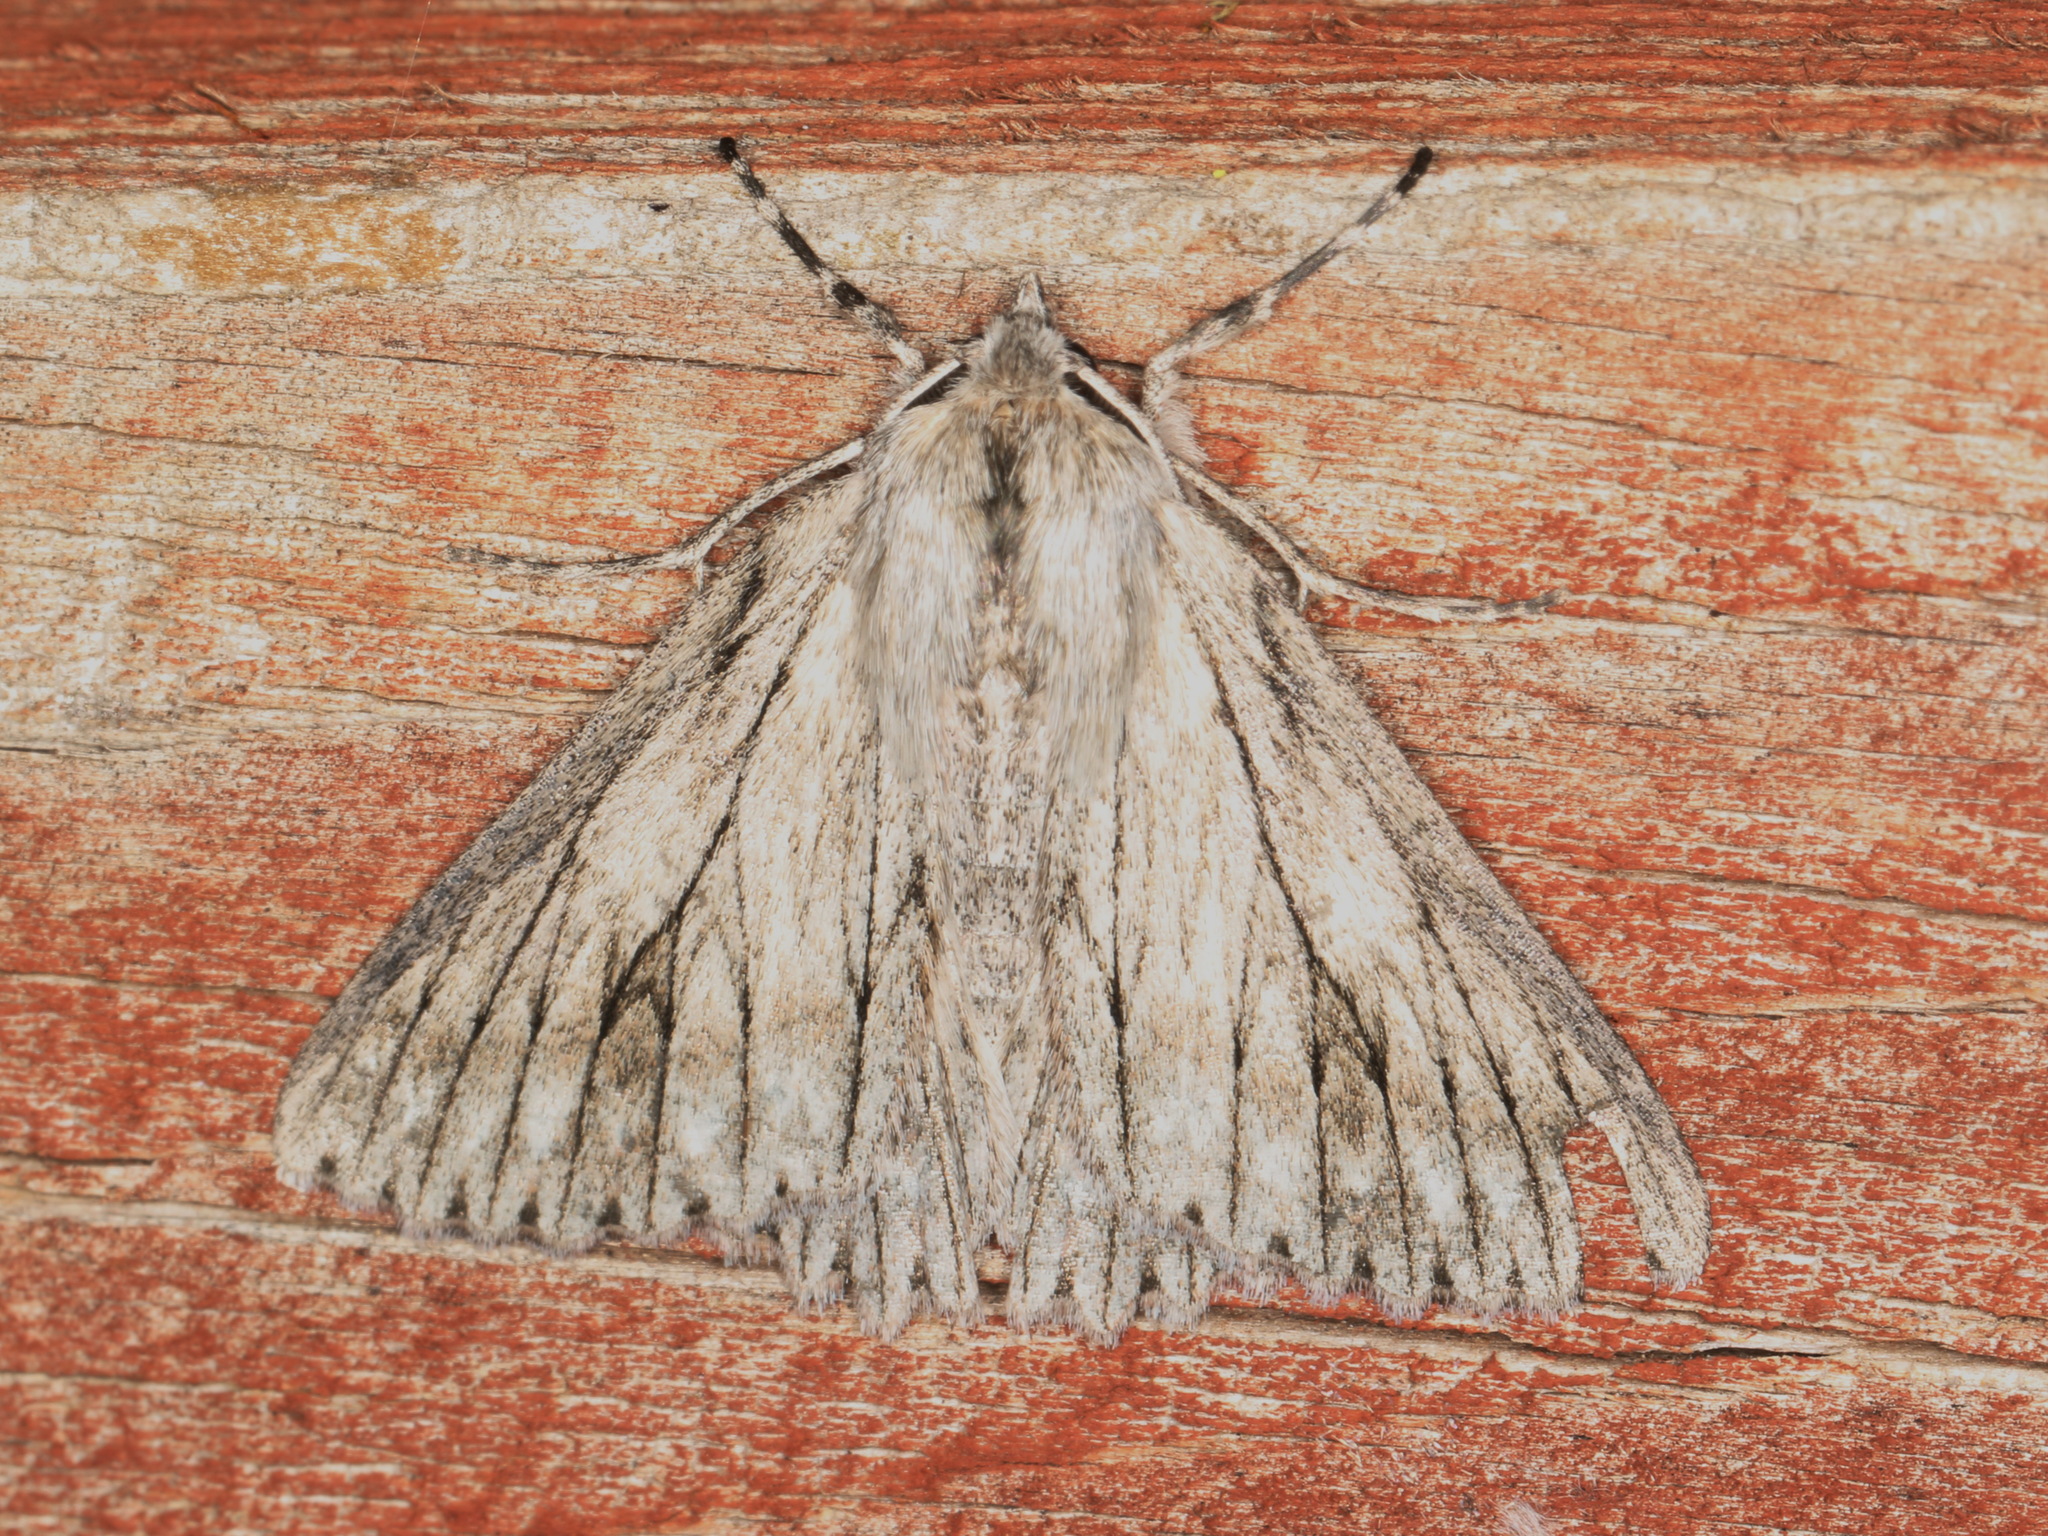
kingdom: Animalia
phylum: Arthropoda
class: Insecta
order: Lepidoptera
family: Geometridae
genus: Cyneoterpna
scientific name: Cyneoterpna wilsoni
